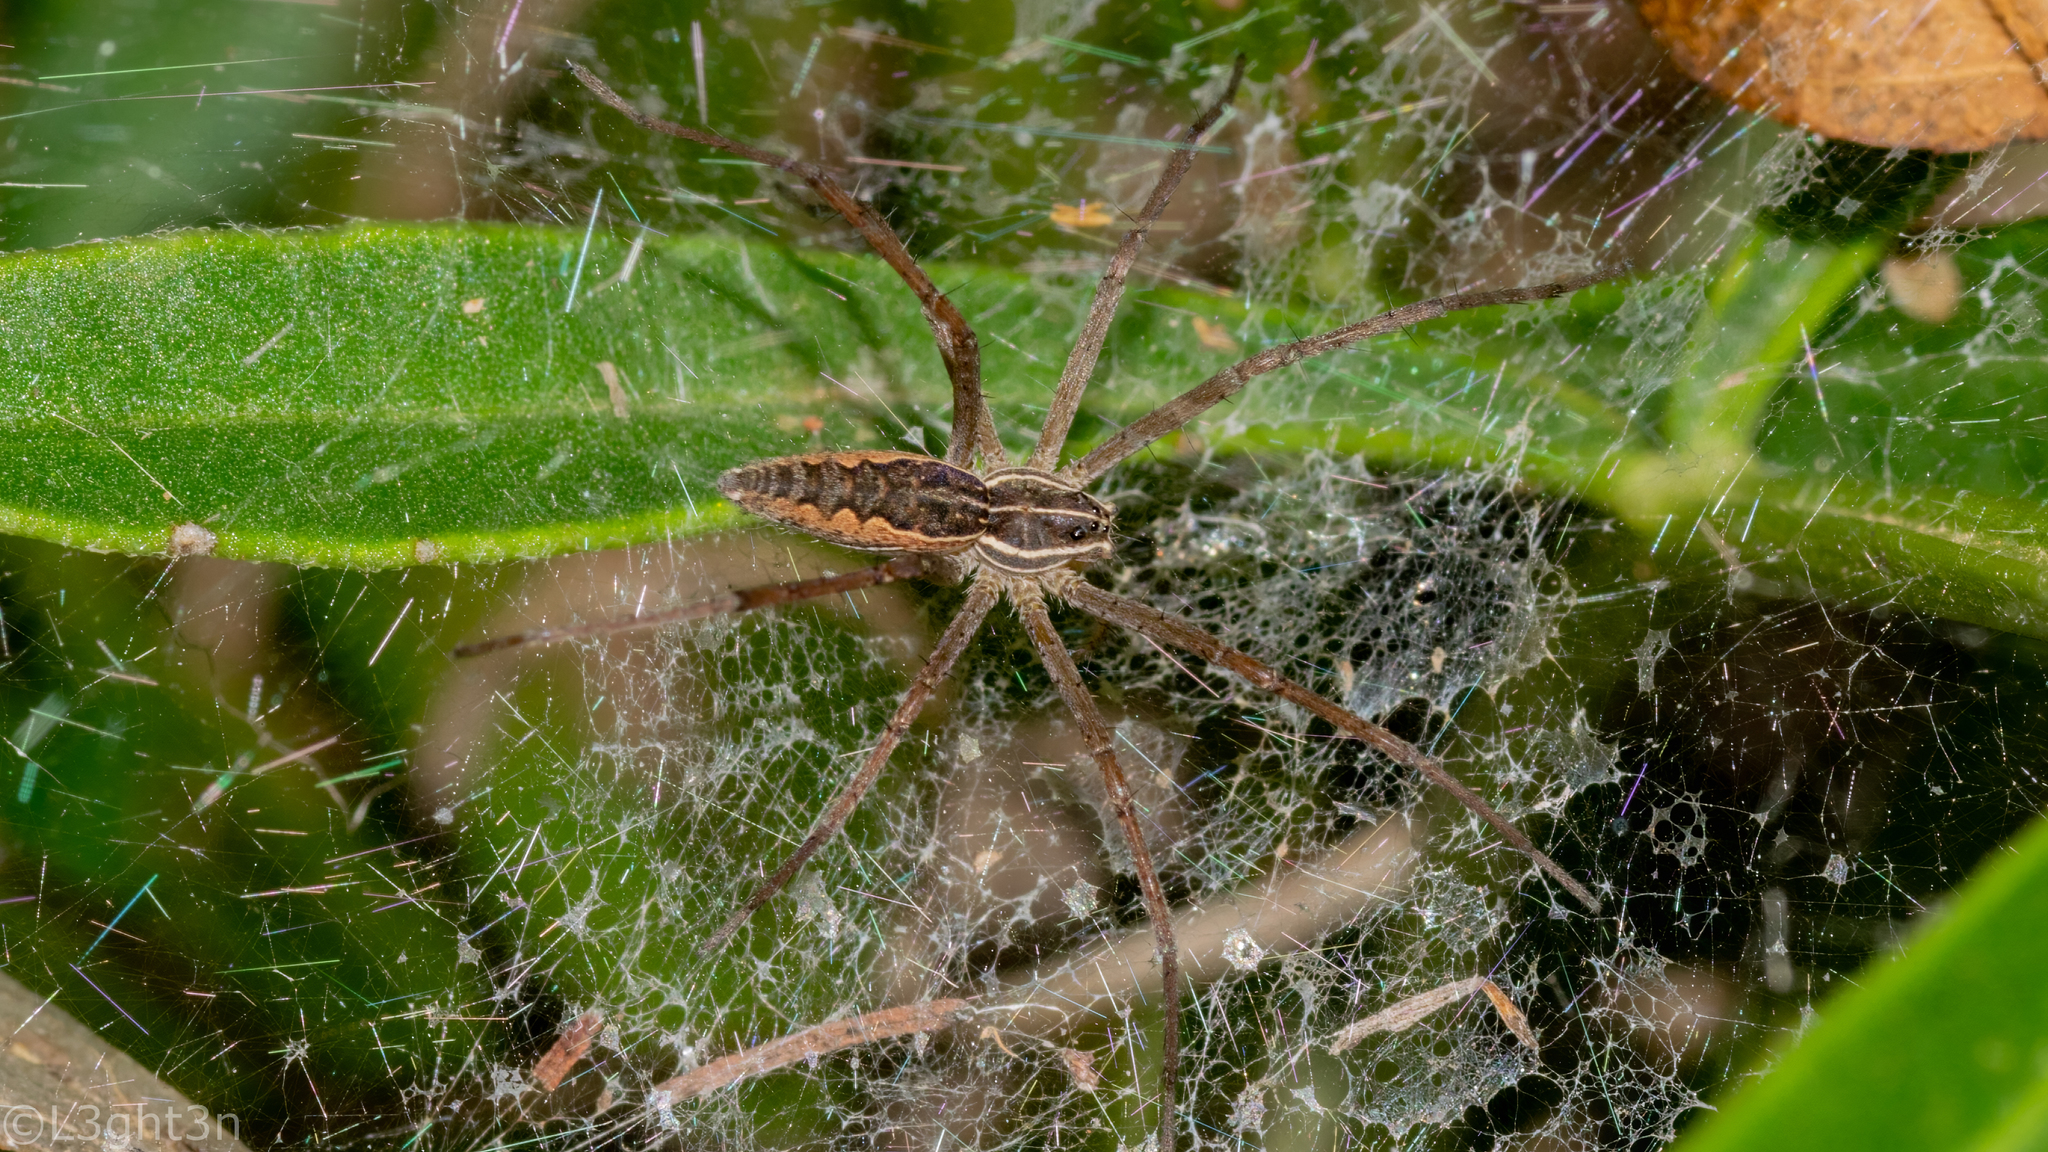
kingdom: Animalia
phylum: Arthropoda
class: Arachnida
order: Araneae
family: Pisauridae
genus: Euprosthenopsis
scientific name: Euprosthenopsis vuattouxi
